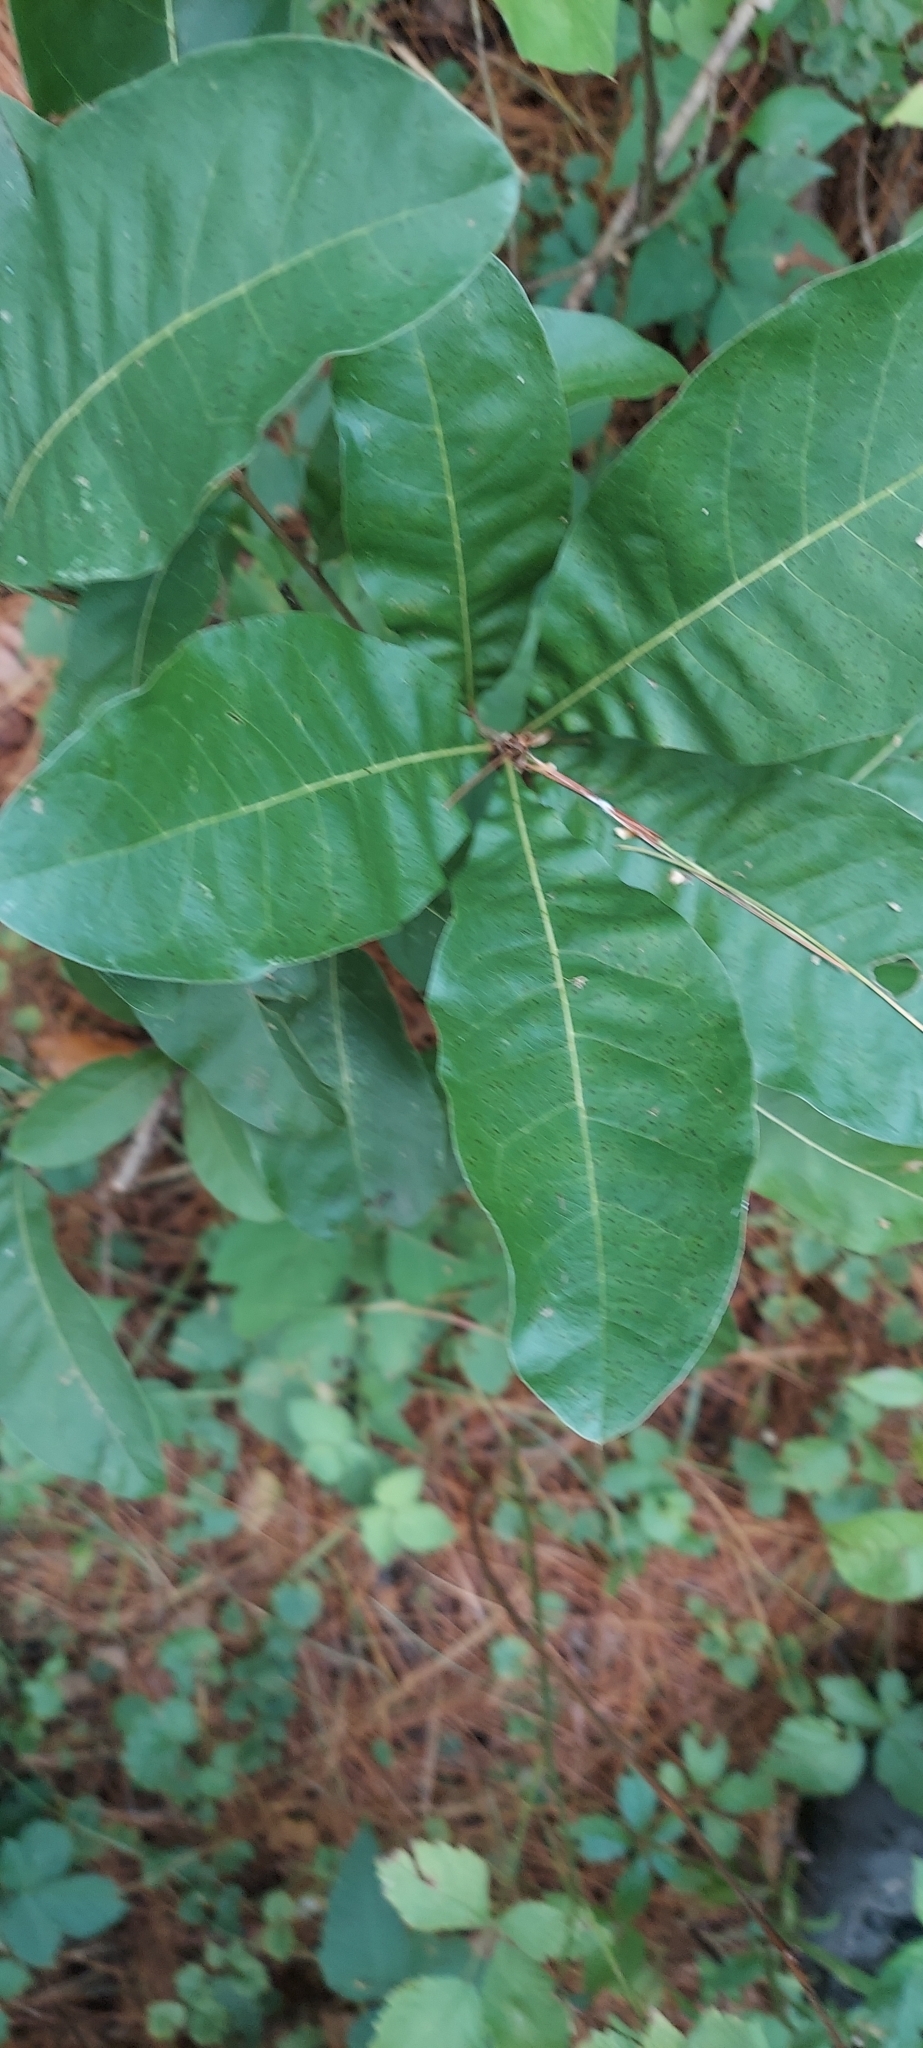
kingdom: Plantae
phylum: Tracheophyta
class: Magnoliopsida
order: Fagales
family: Fagaceae
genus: Quercus
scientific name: Quercus imbricaria
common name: Shingle oak
